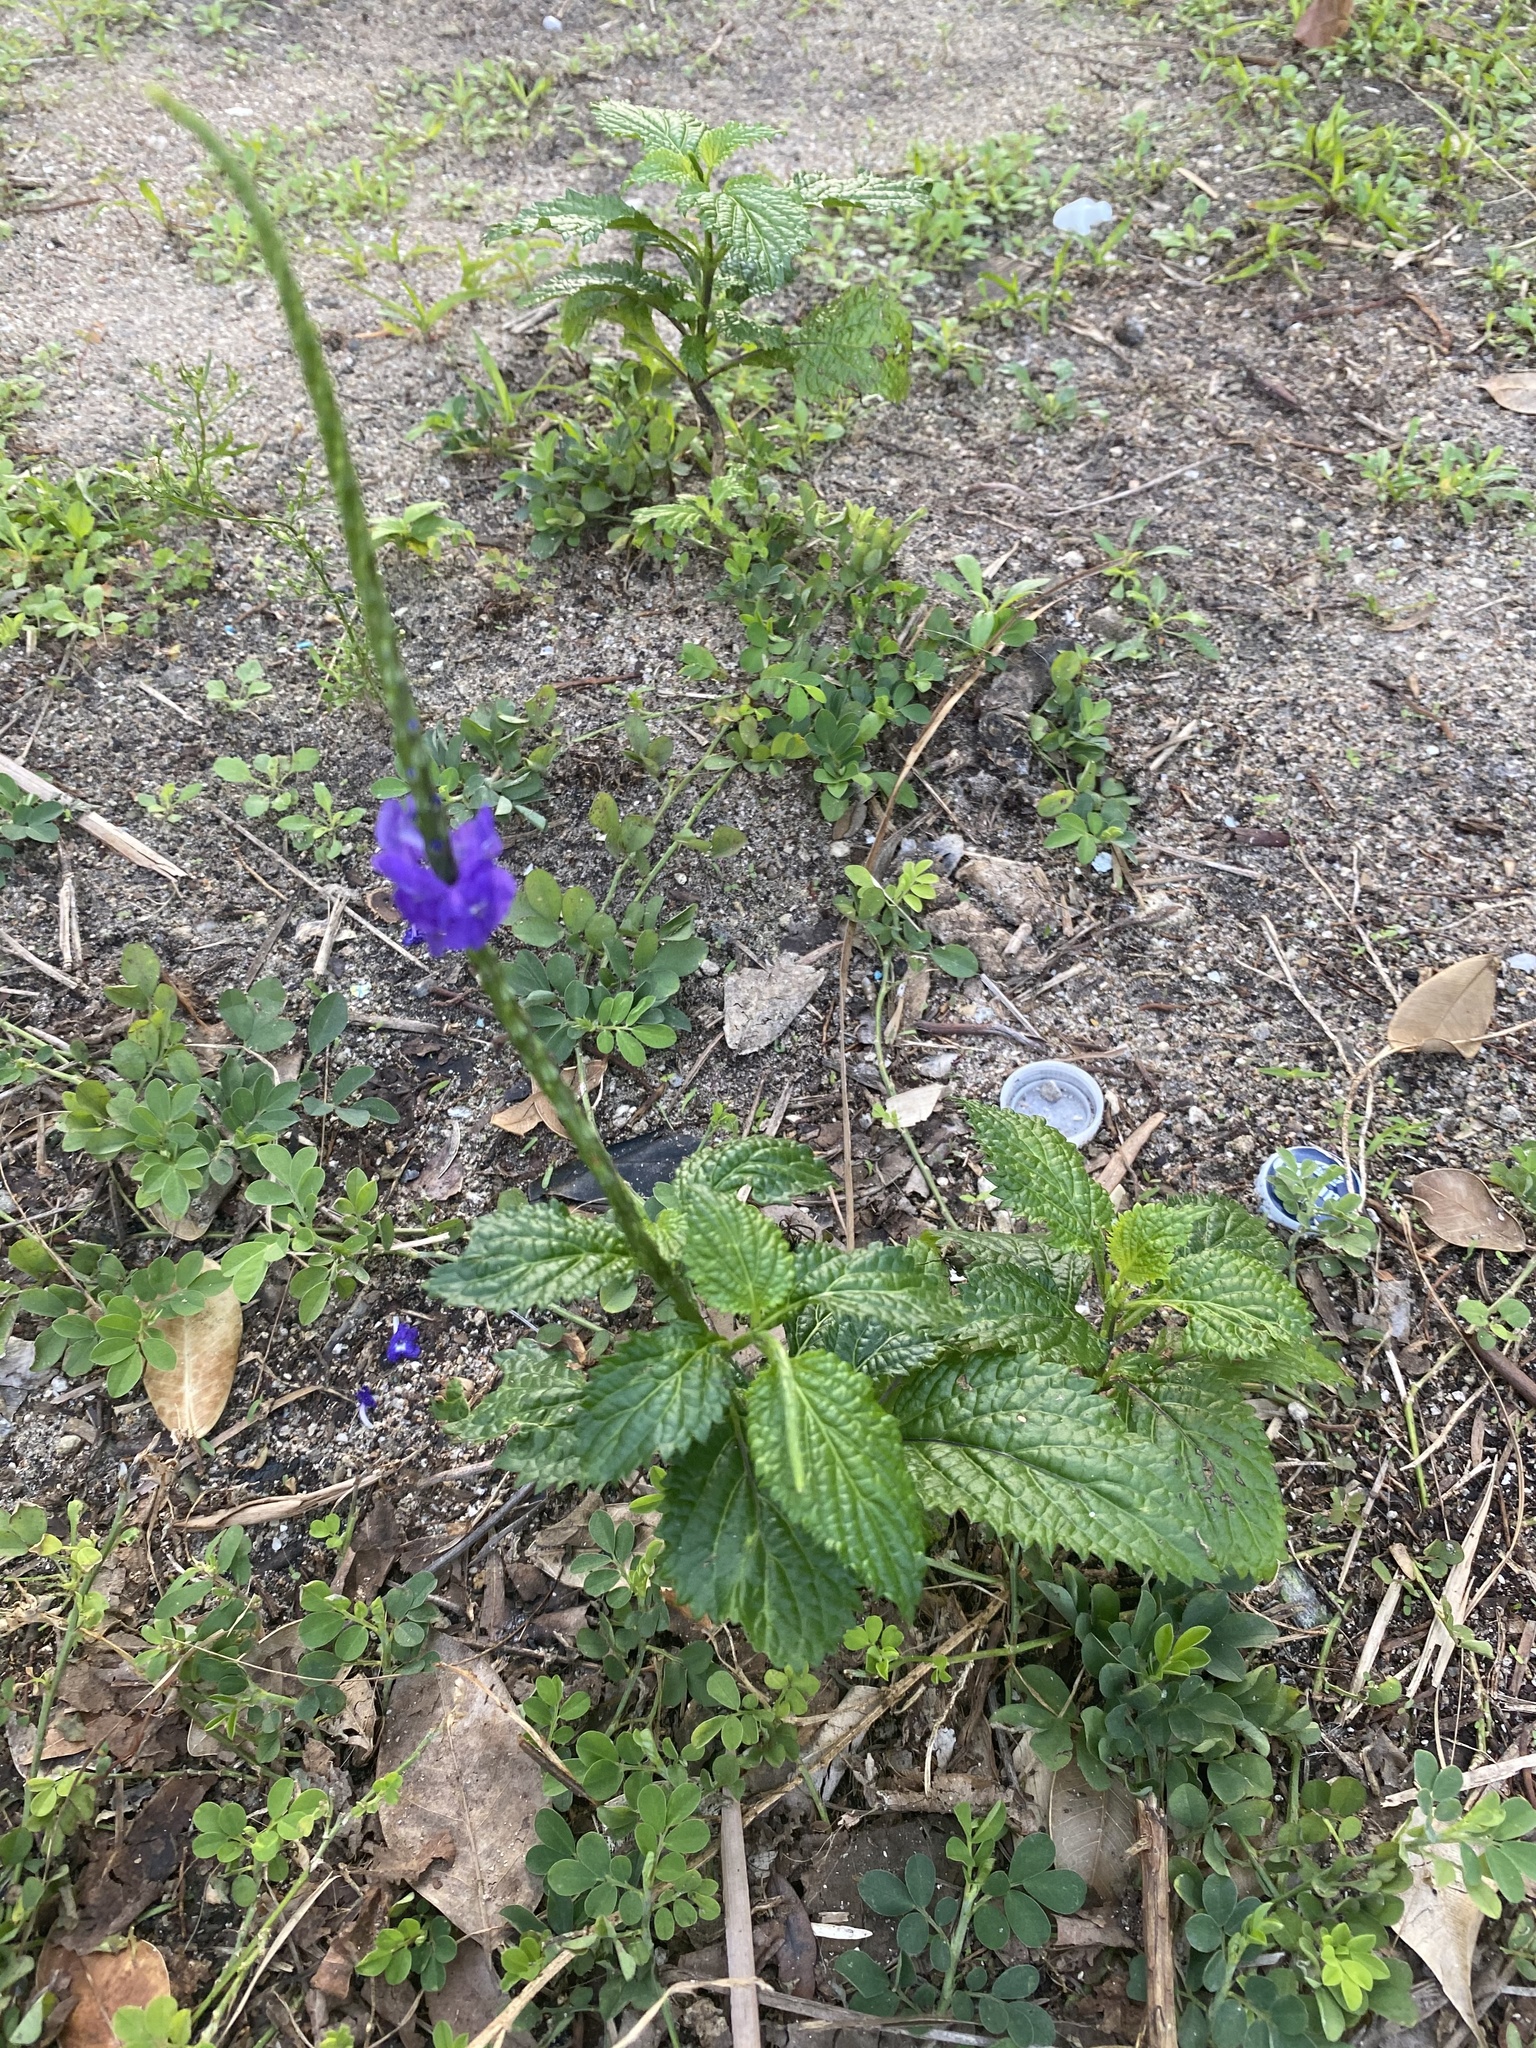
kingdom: Plantae
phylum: Tracheophyta
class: Magnoliopsida
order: Lamiales
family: Verbenaceae
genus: Stachytarpheta
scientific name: Stachytarpheta cayennensis
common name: Cayenne porterweed
